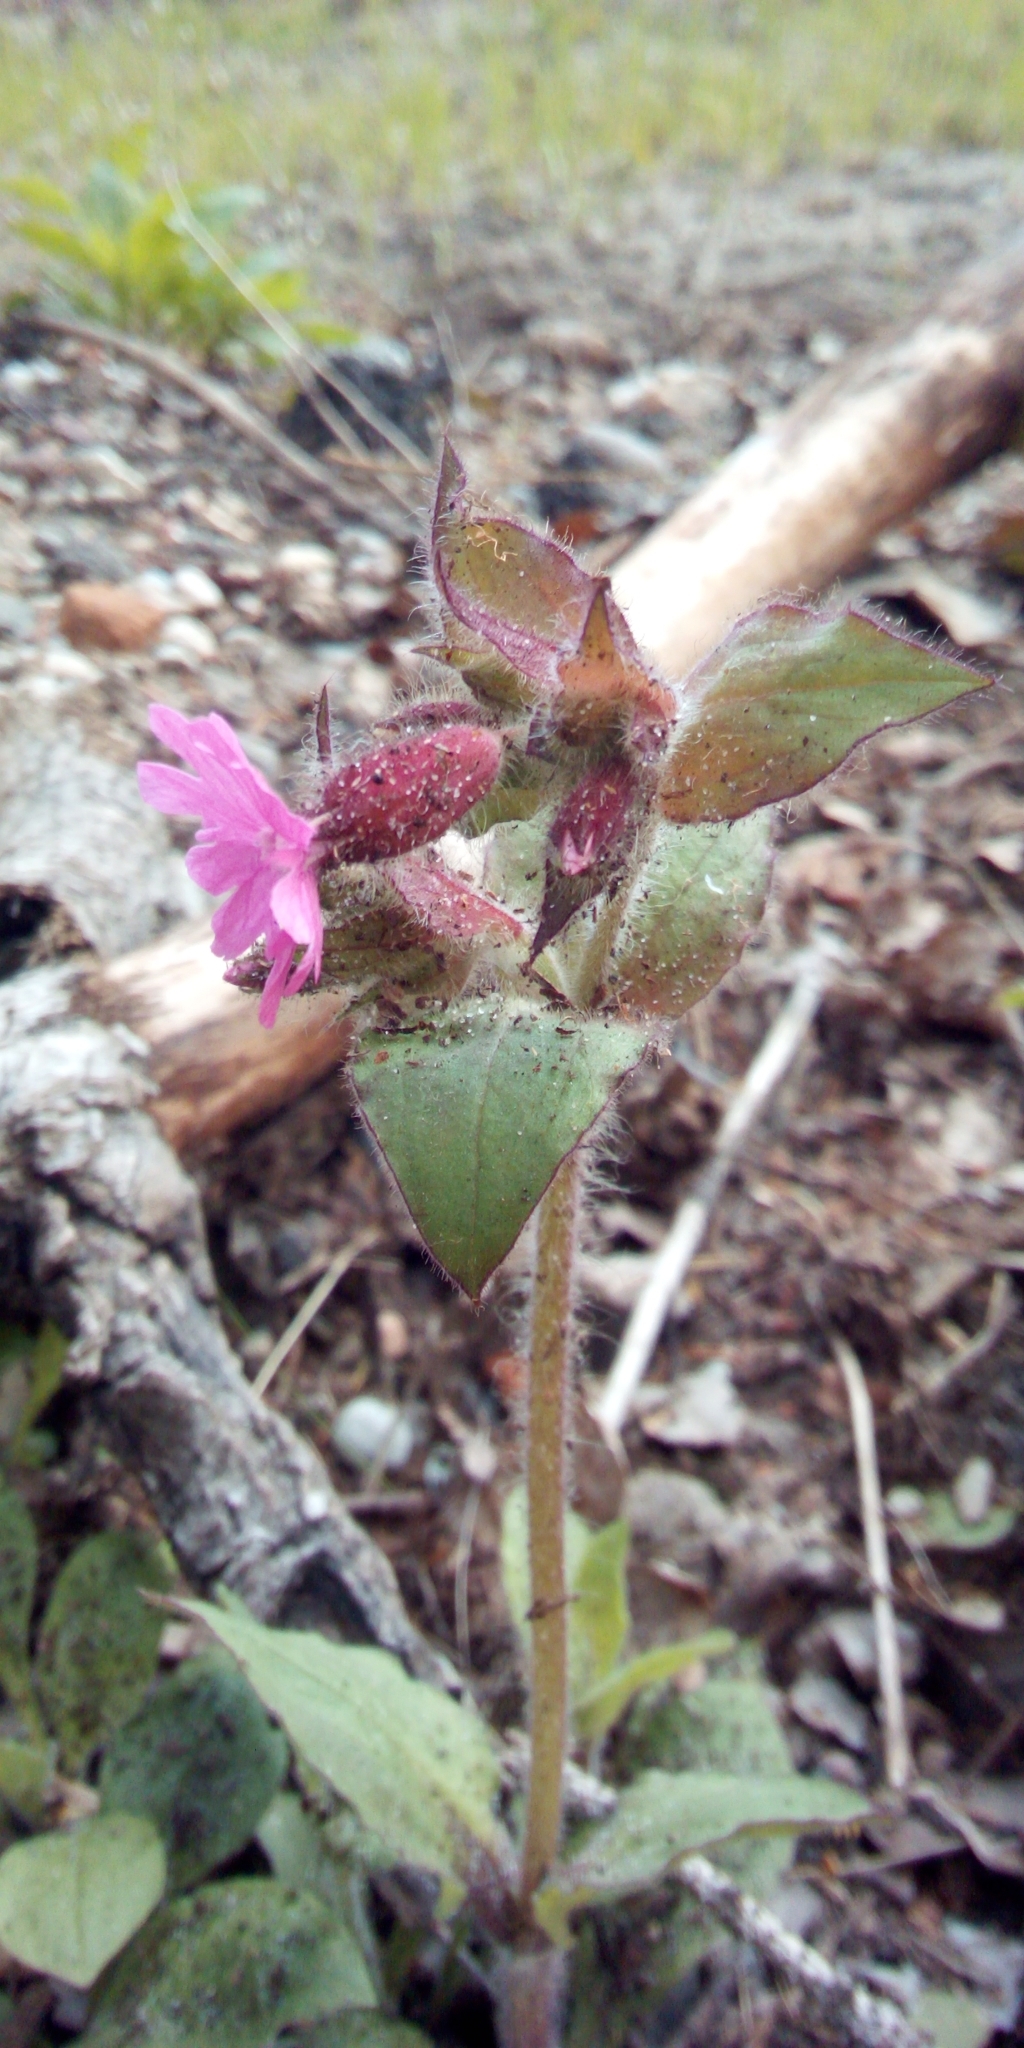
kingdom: Plantae
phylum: Tracheophyta
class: Magnoliopsida
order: Caryophyllales
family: Caryophyllaceae
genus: Silene
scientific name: Silene dioica
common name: Red campion
